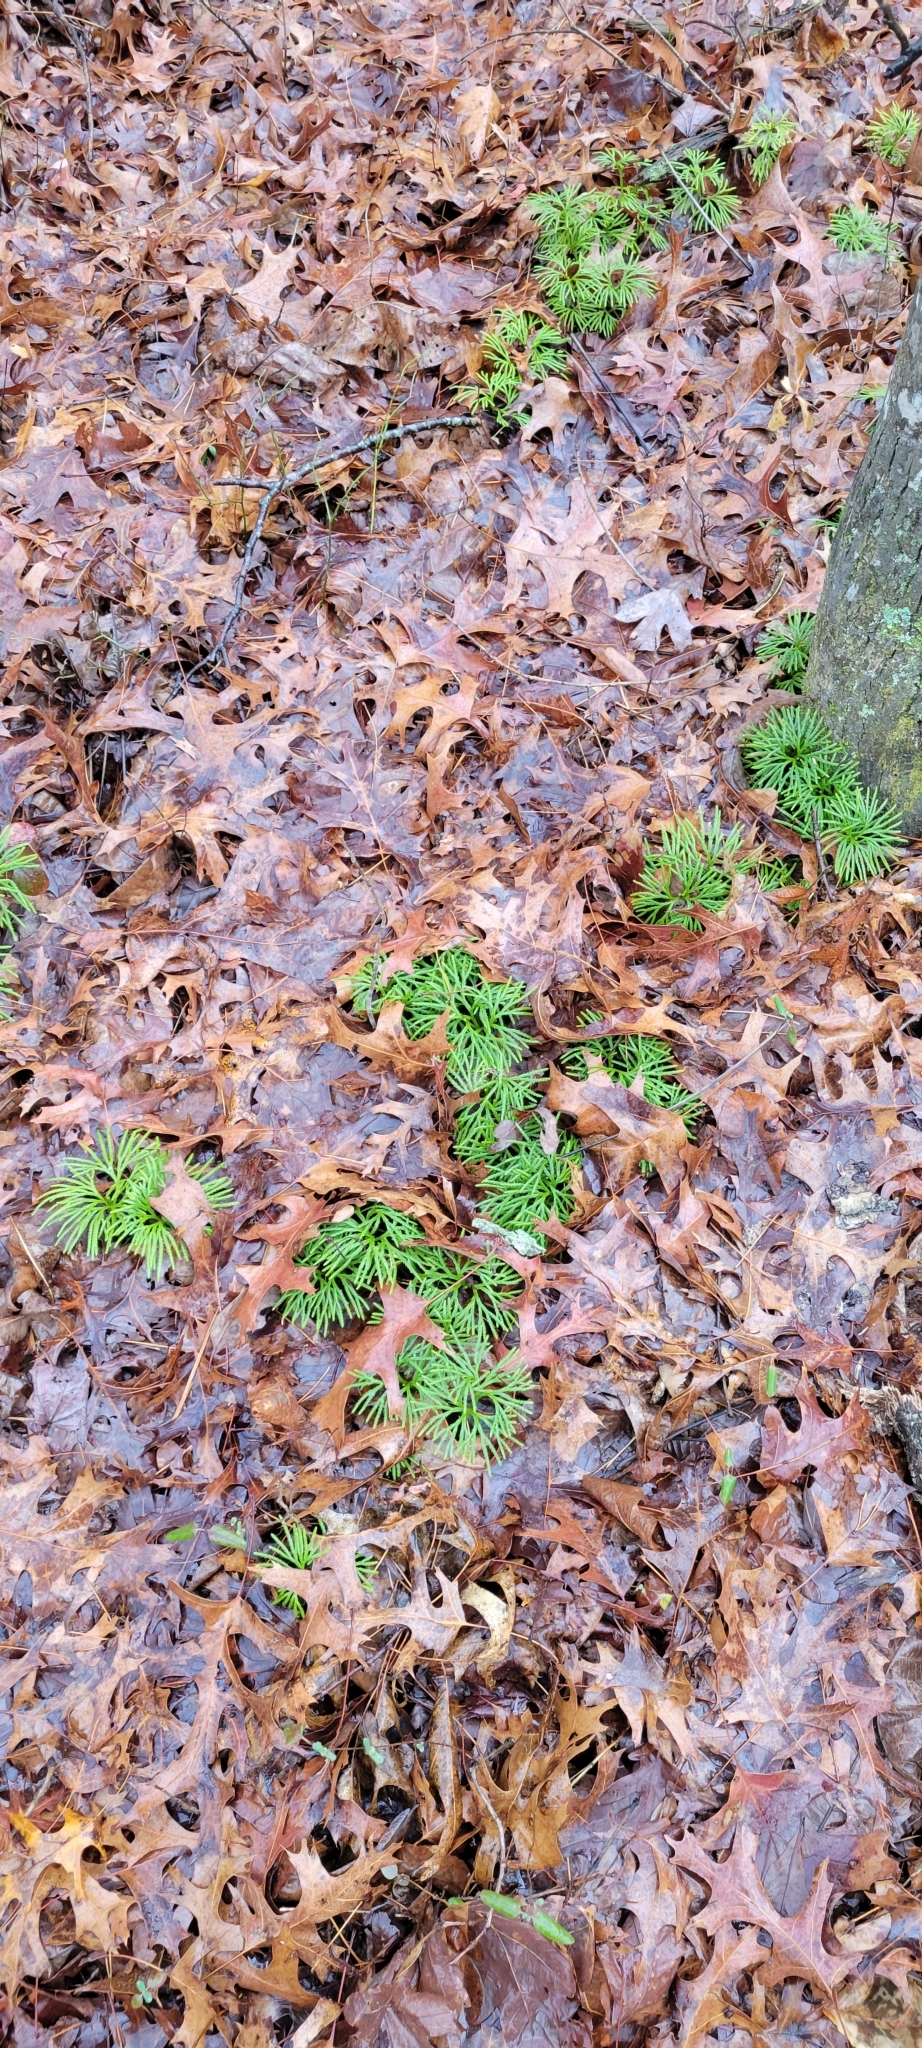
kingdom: Plantae
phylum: Tracheophyta
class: Lycopodiopsida
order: Lycopodiales
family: Lycopodiaceae
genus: Diphasiastrum
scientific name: Diphasiastrum digitatum
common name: Southern running-pine
